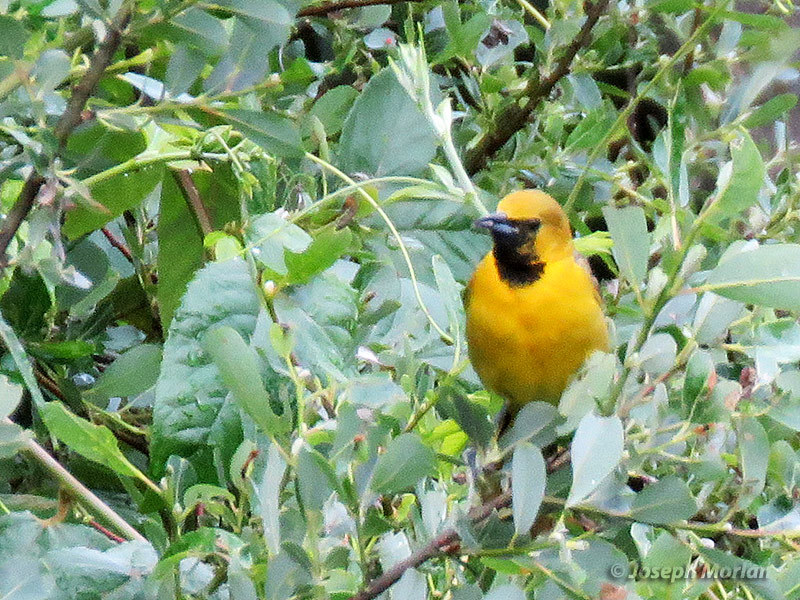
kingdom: Animalia
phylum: Chordata
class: Aves
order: Passeriformes
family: Icteridae
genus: Icterus
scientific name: Icterus cucullatus
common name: Hooded oriole
